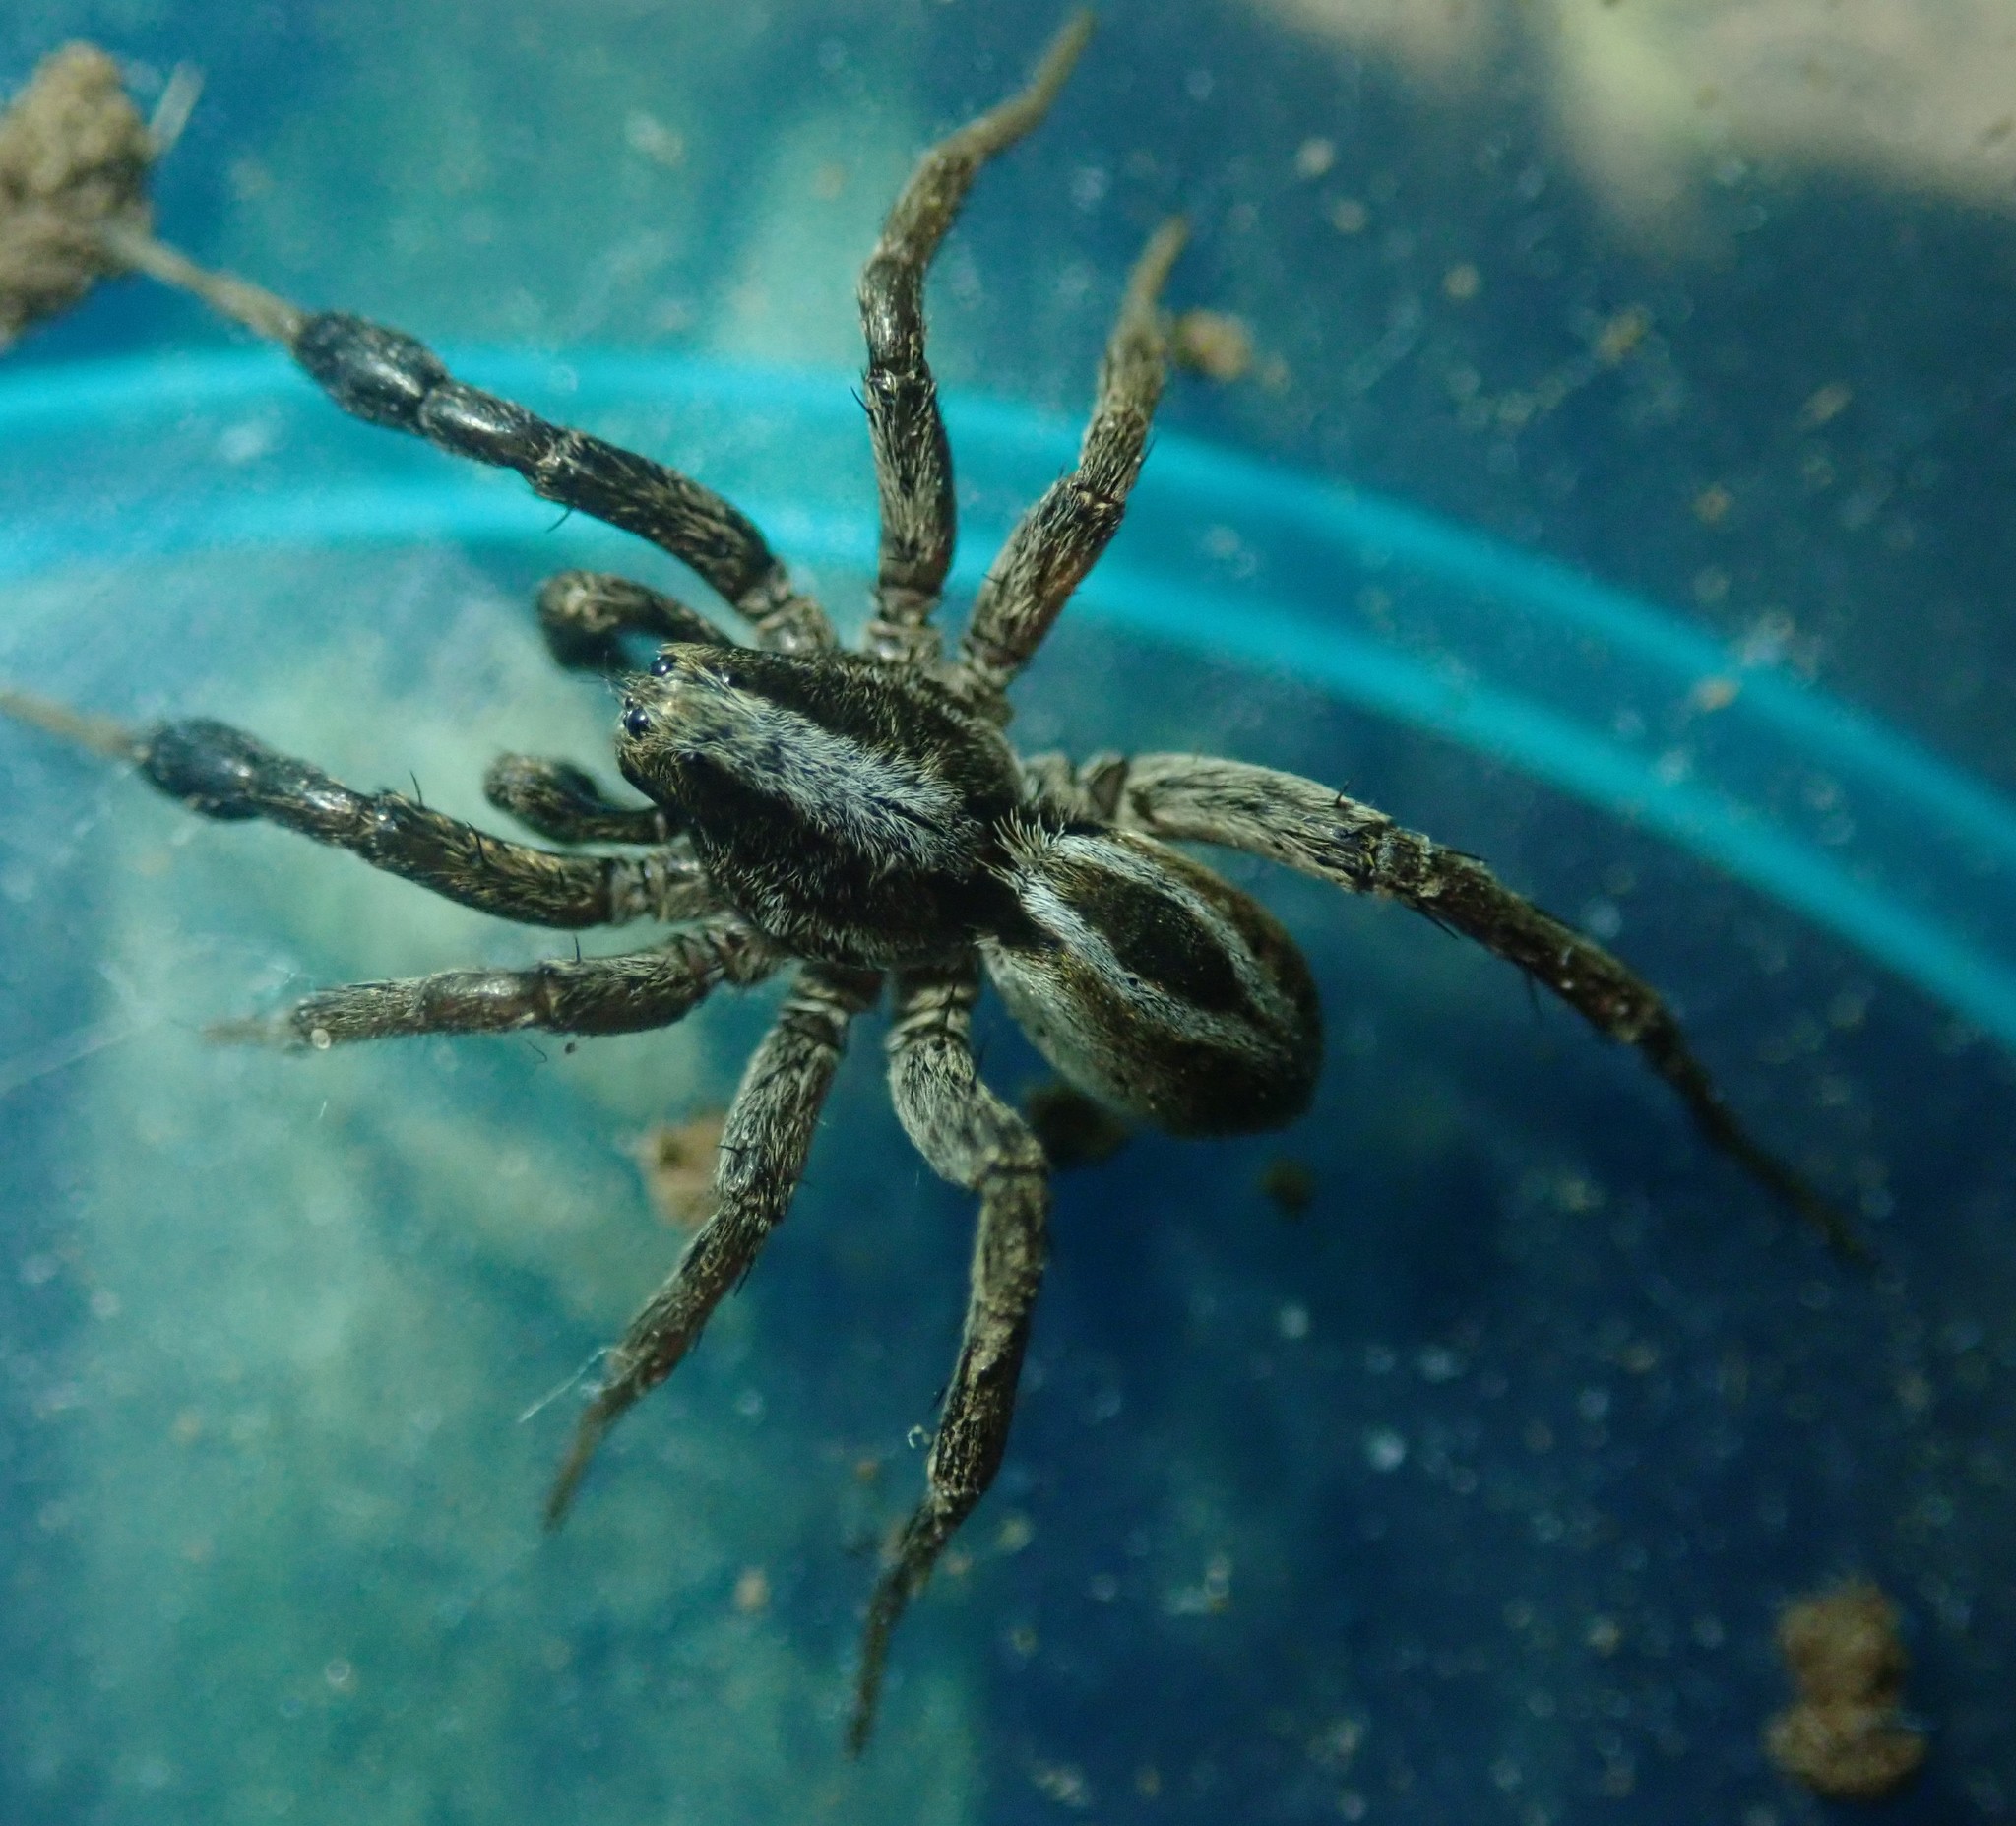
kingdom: Animalia
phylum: Arthropoda
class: Arachnida
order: Araneae
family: Lycosidae
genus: Alopecosa
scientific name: Alopecosa cuneata
